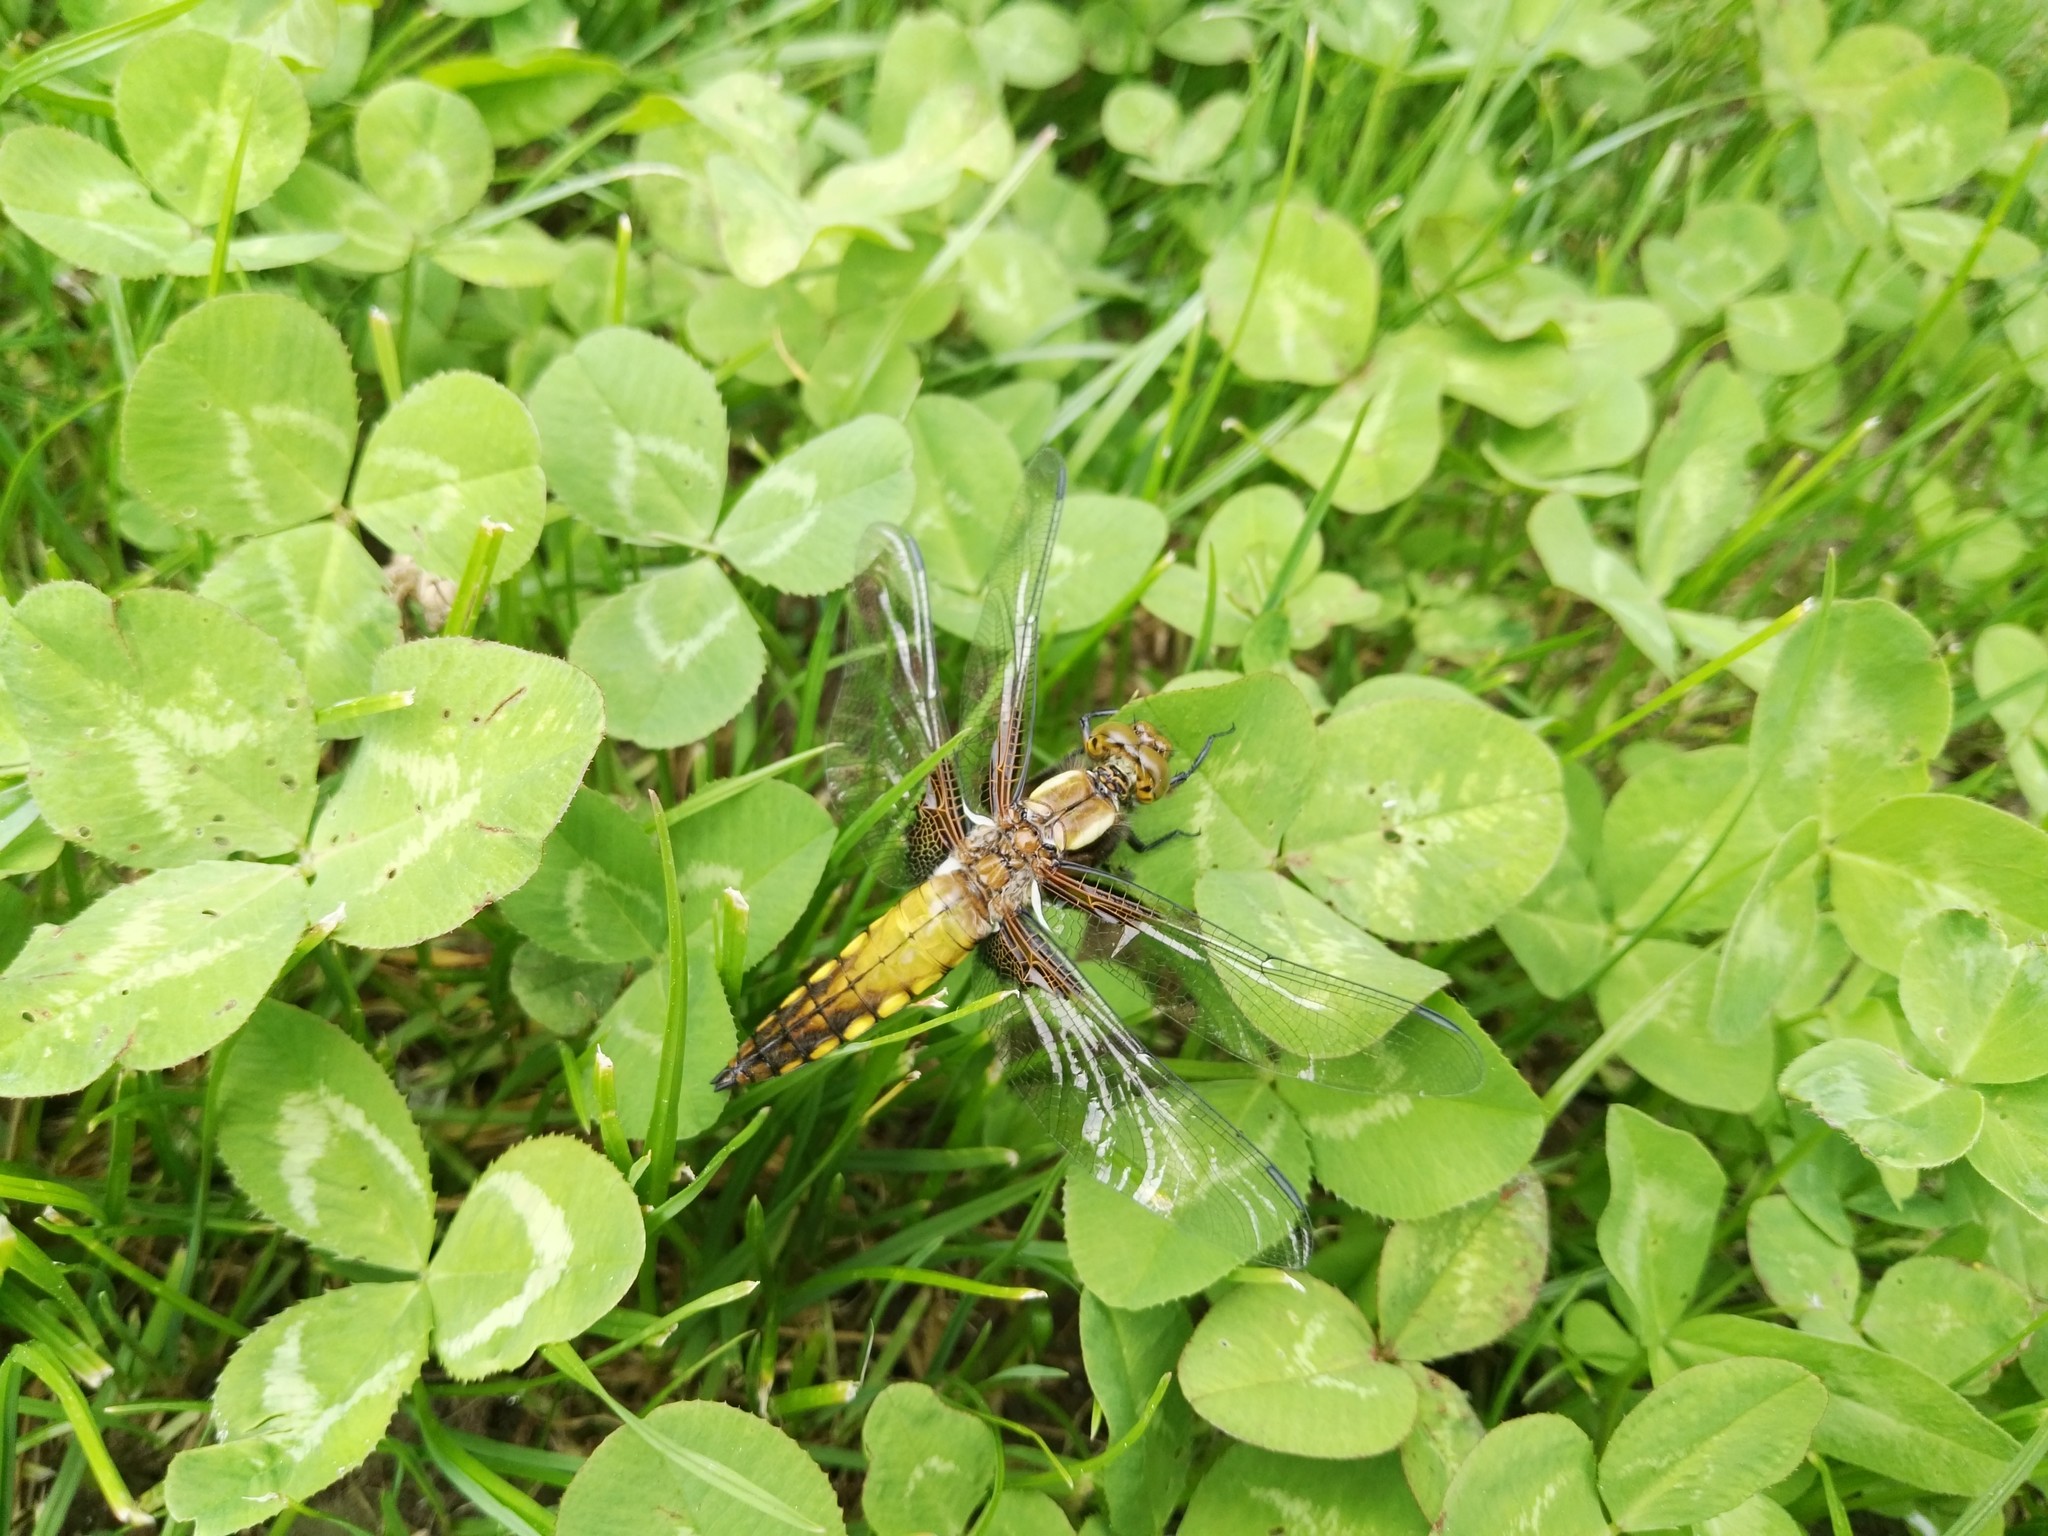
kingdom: Animalia
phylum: Arthropoda
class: Insecta
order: Odonata
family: Libellulidae
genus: Libellula
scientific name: Libellula depressa
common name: Broad-bodied chaser
